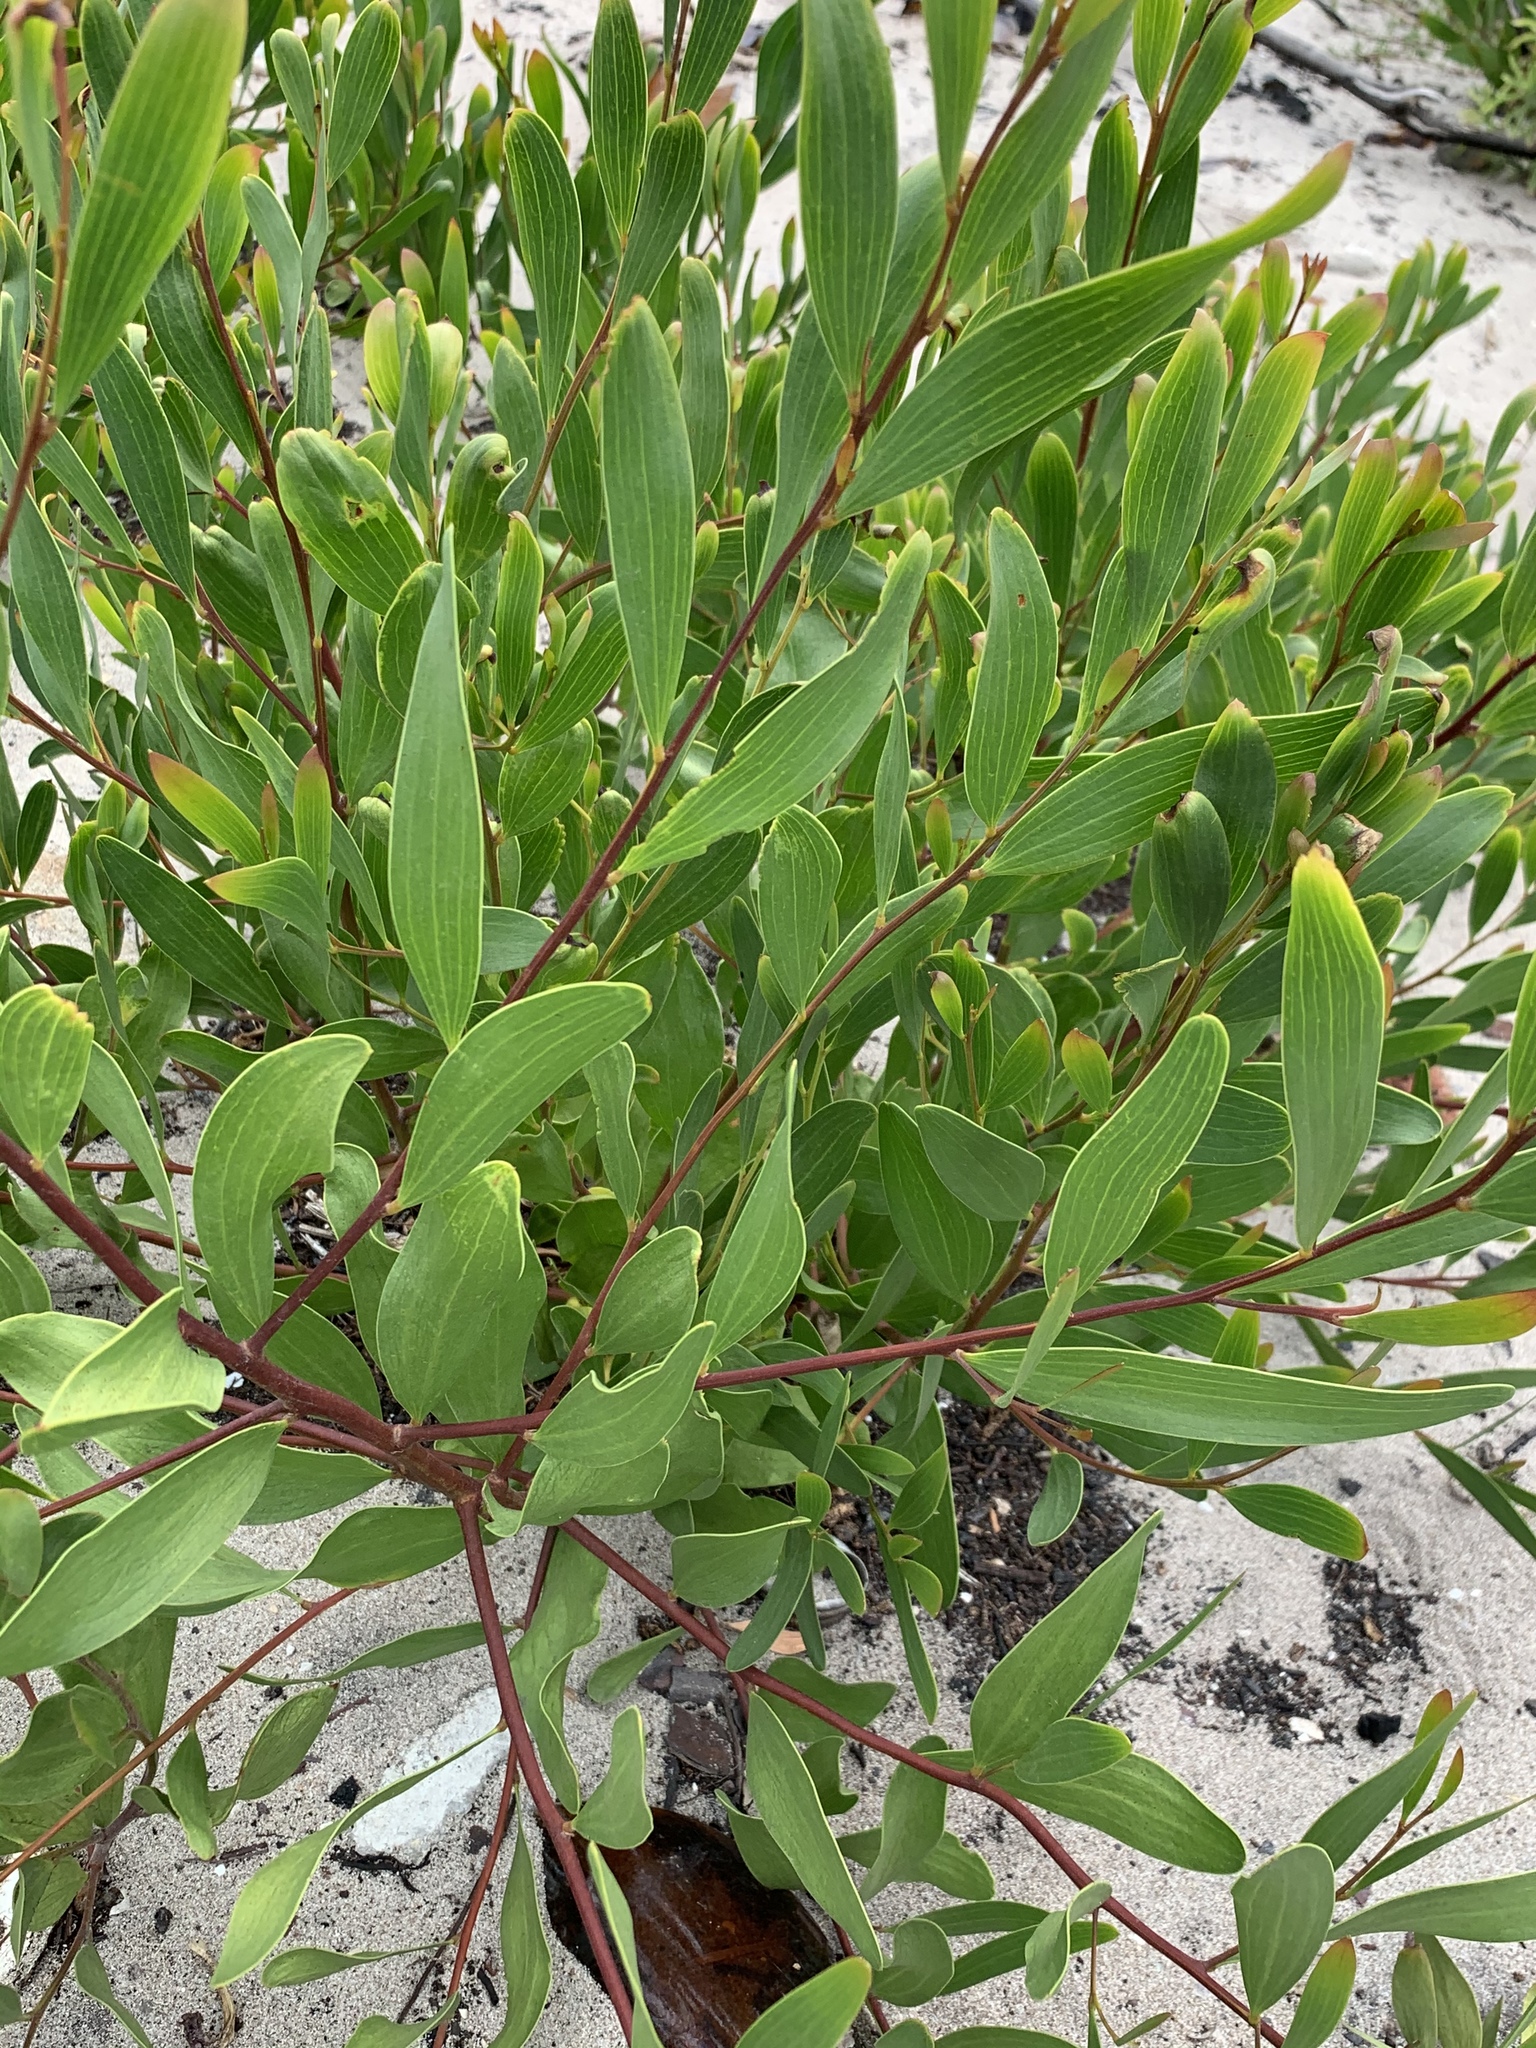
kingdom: Plantae
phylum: Tracheophyta
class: Magnoliopsida
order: Fabales
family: Fabaceae
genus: Acacia
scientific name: Acacia cyclops
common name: Coastal wattle
